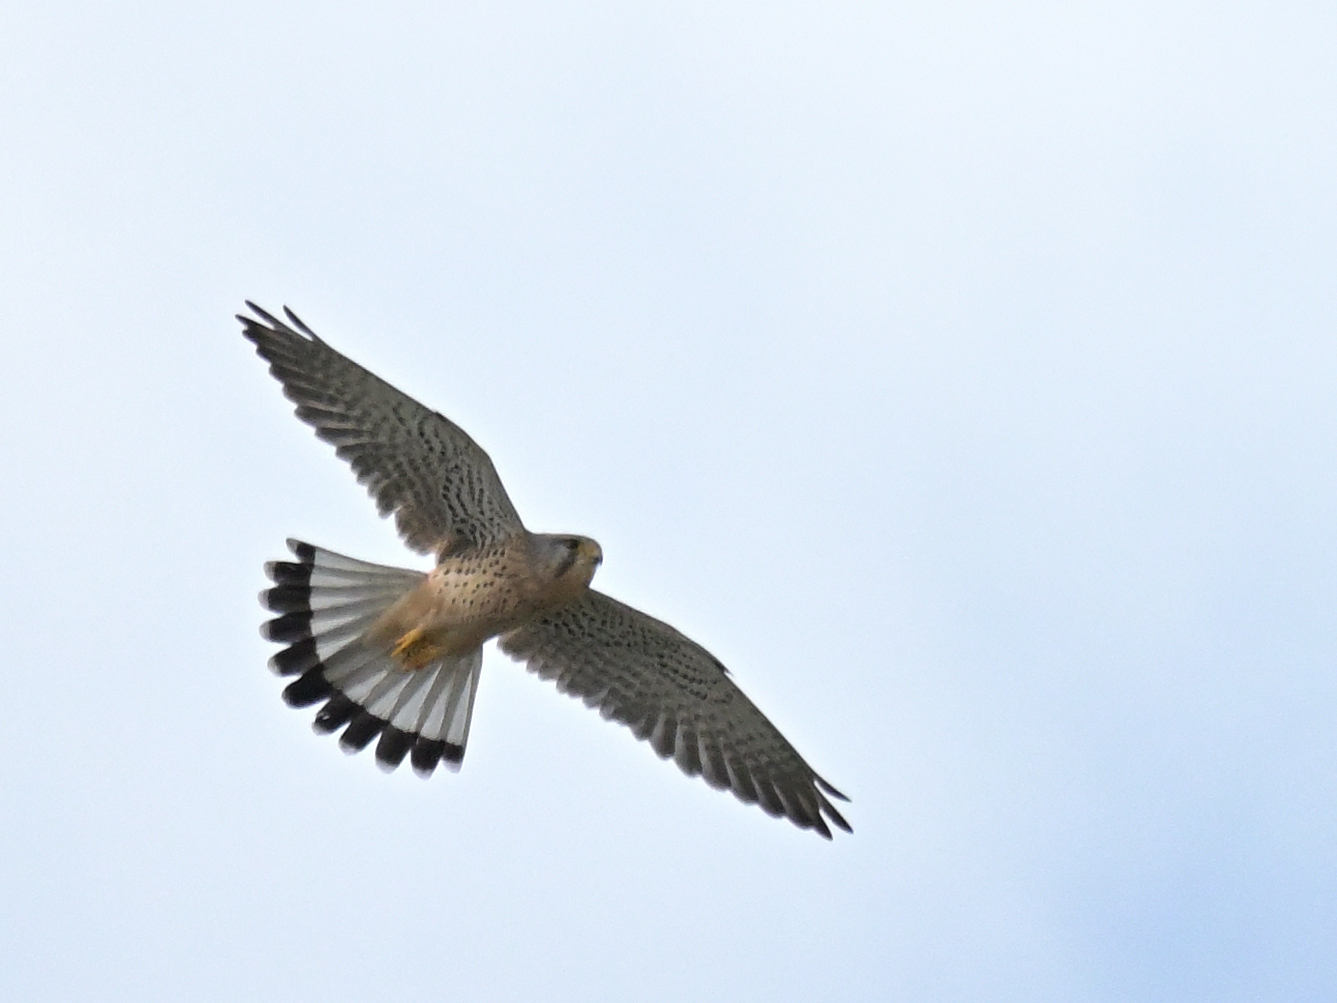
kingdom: Animalia
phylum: Chordata
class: Aves
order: Falconiformes
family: Falconidae
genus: Falco
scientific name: Falco tinnunculus
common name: Common kestrel
